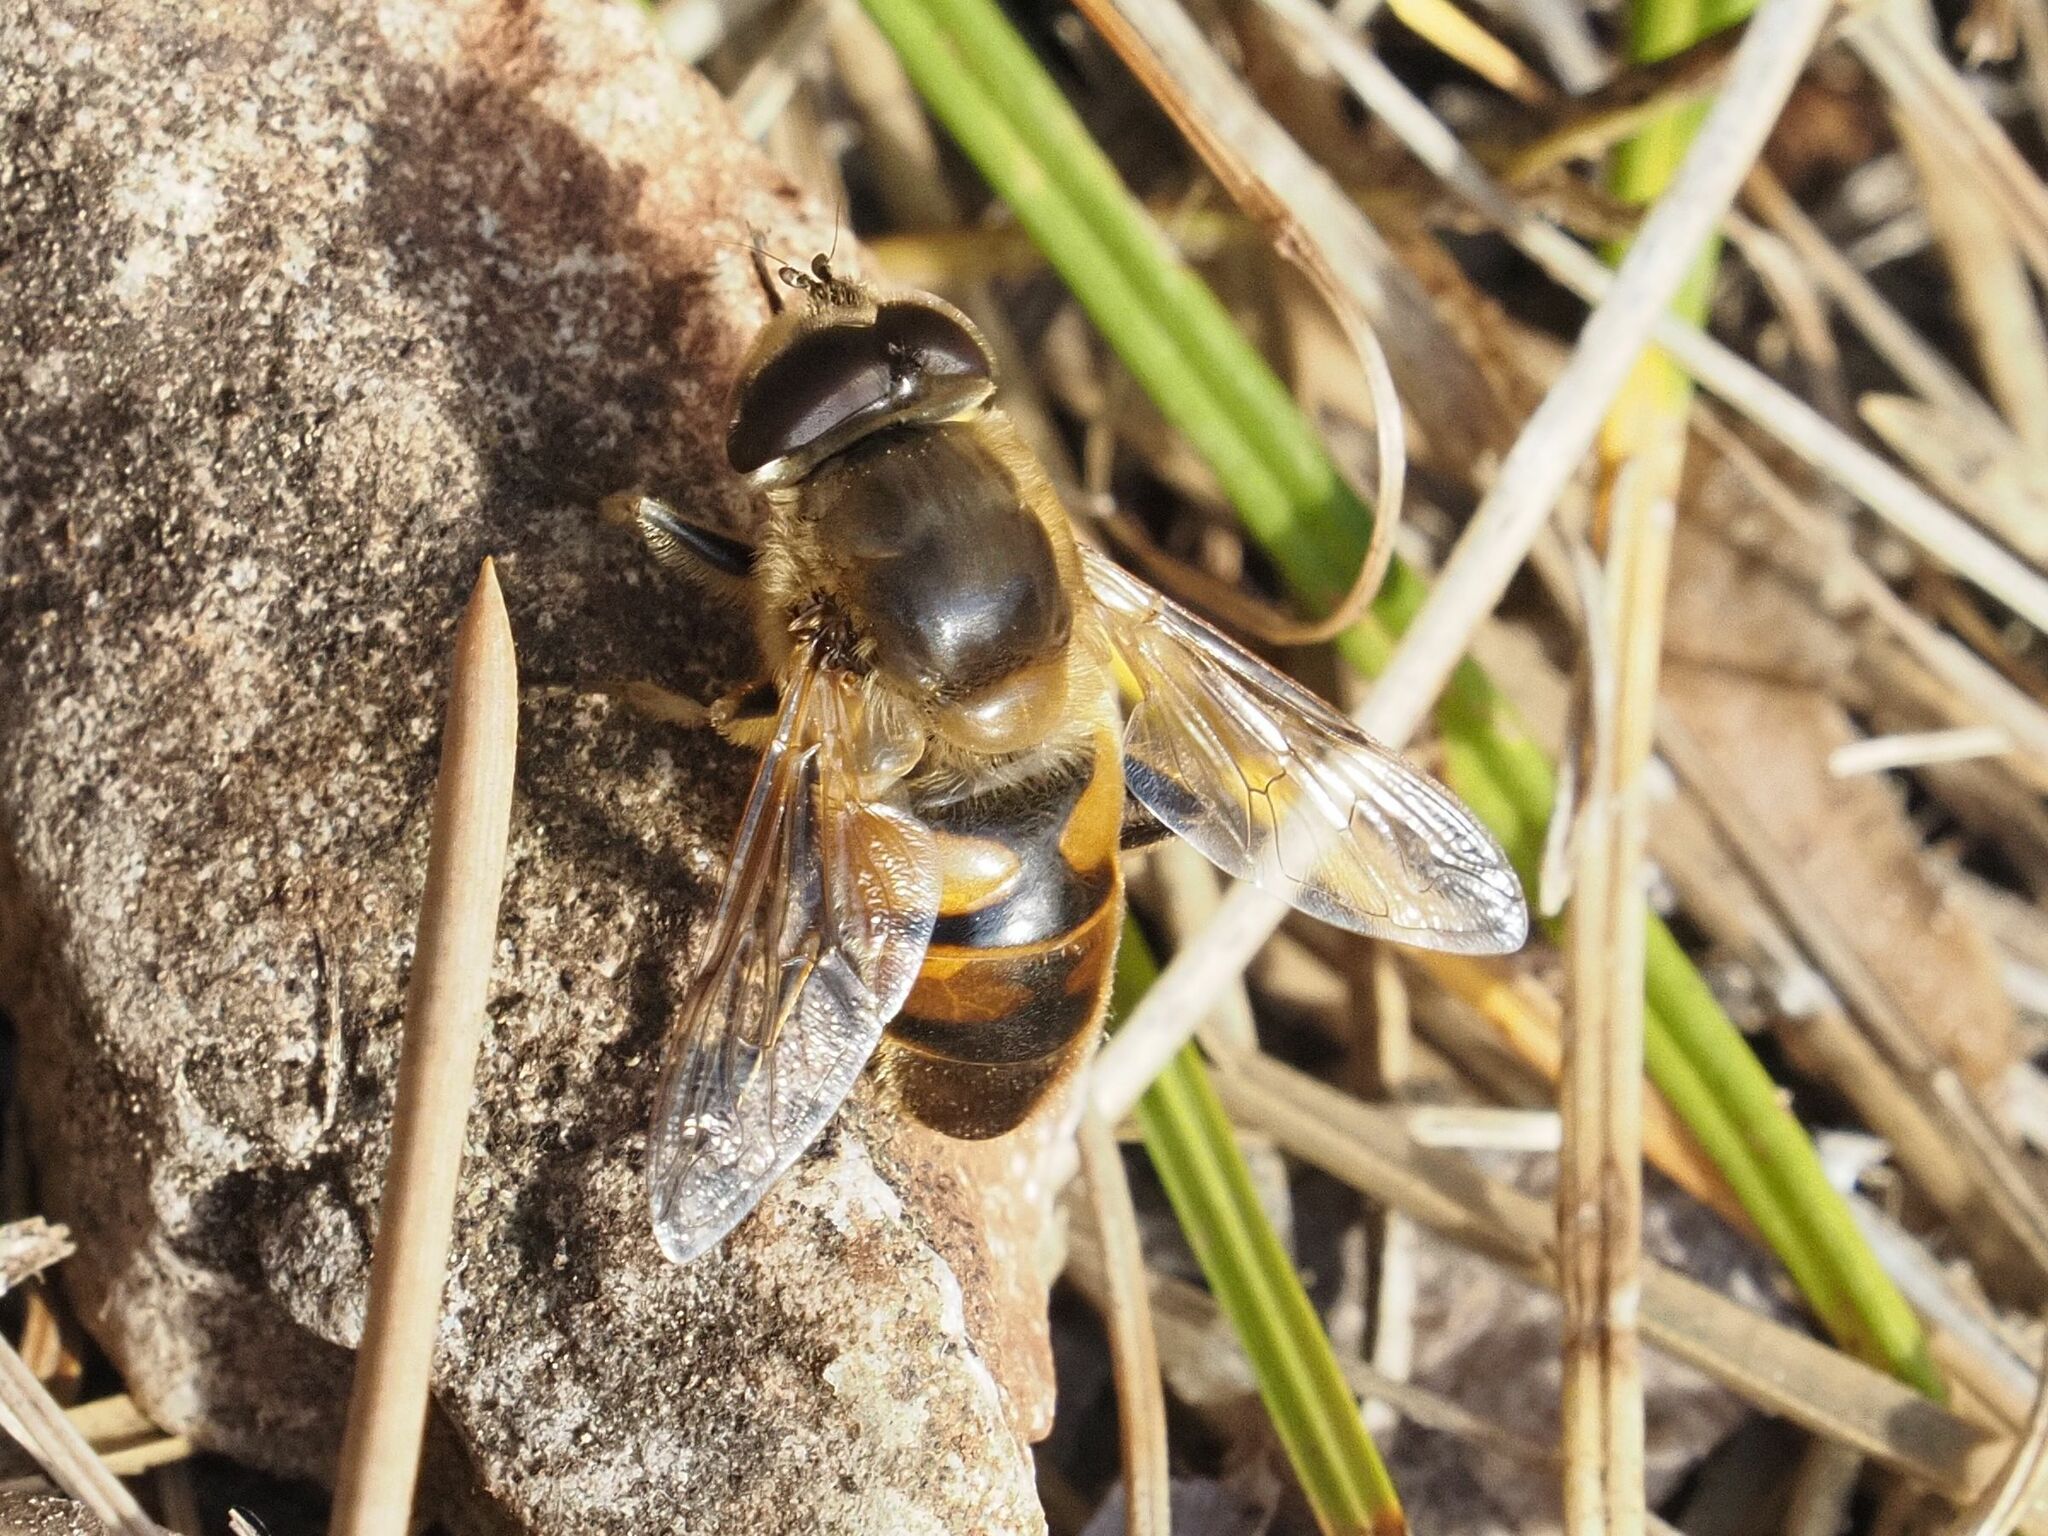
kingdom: Animalia
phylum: Arthropoda
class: Insecta
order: Diptera
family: Syrphidae
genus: Eristalis
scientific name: Eristalis tenax
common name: Drone fly
